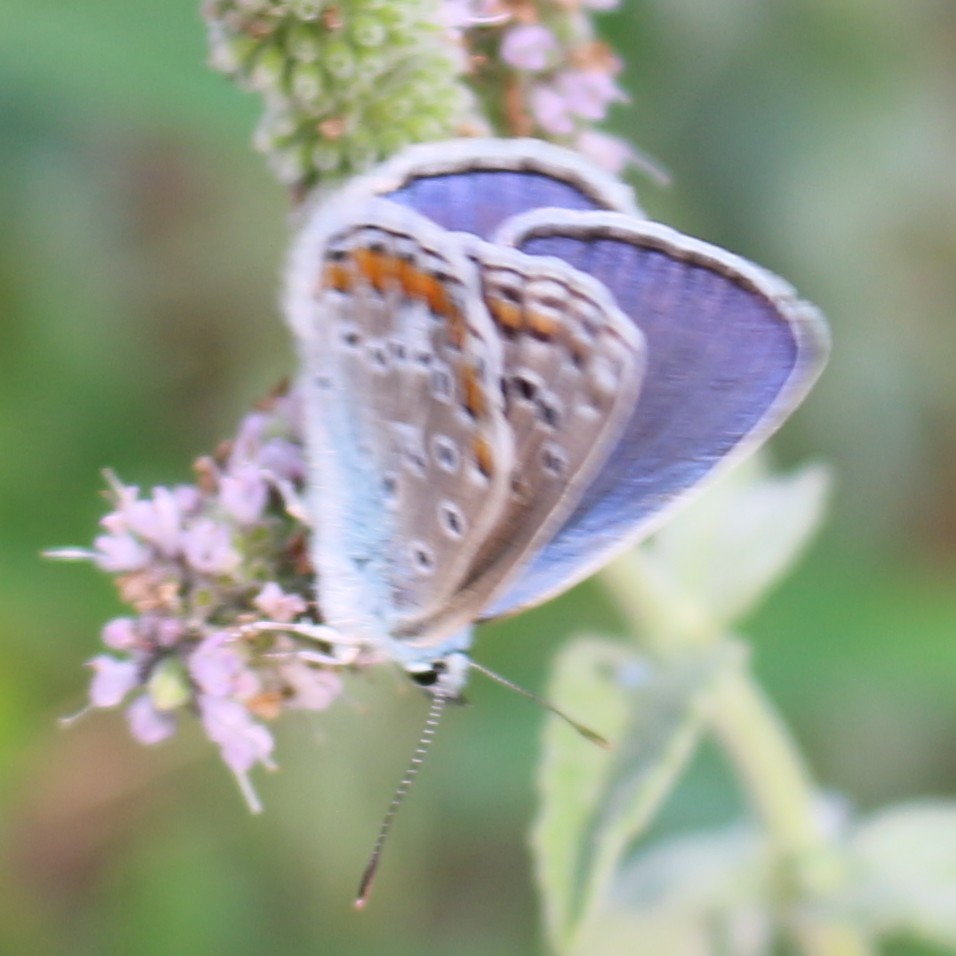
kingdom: Animalia
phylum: Arthropoda
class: Insecta
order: Lepidoptera
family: Lycaenidae
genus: Polyommatus
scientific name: Polyommatus icarus
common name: Common blue
